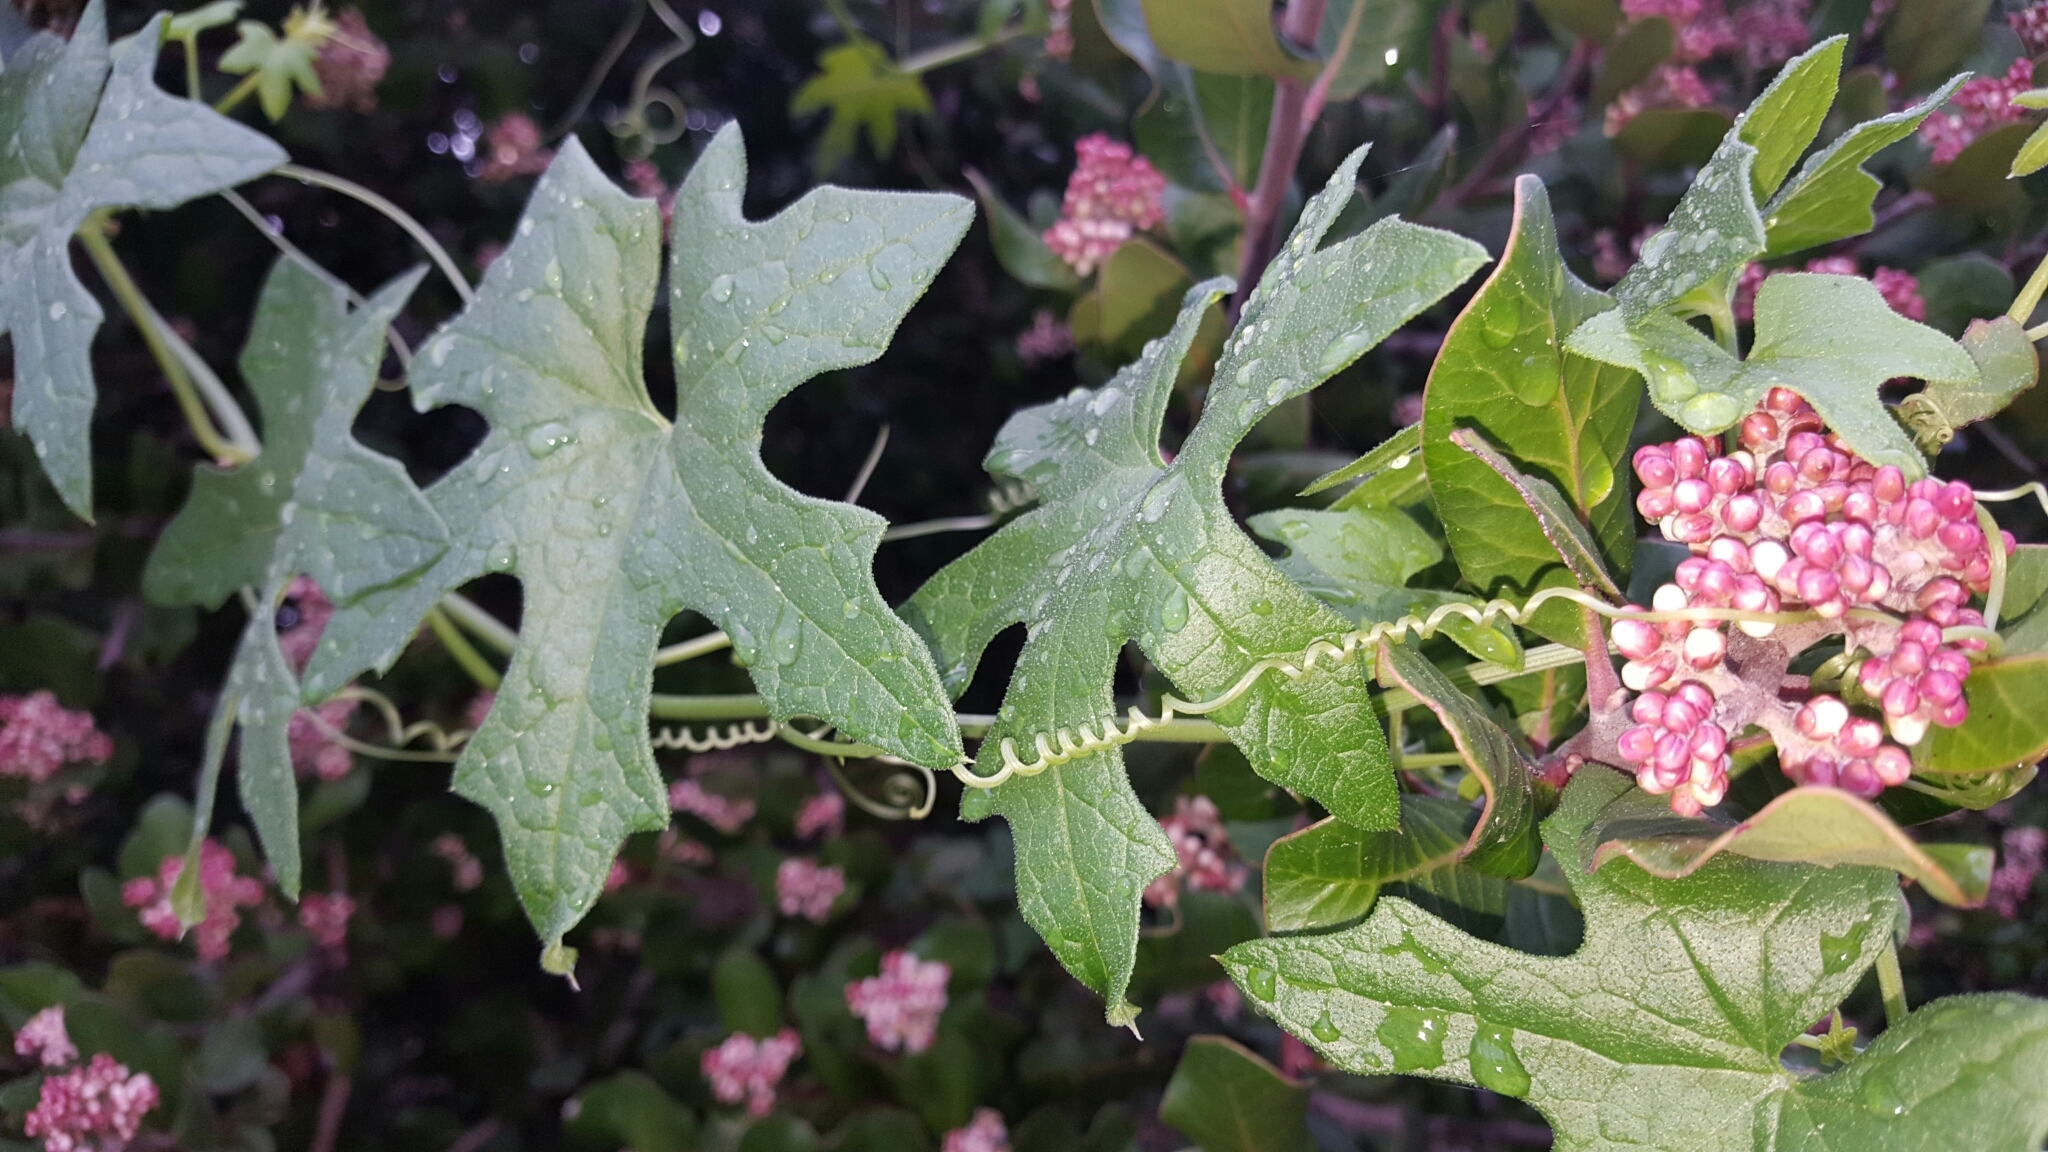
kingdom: Plantae
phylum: Tracheophyta
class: Magnoliopsida
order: Cucurbitales
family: Cucurbitaceae
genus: Marah
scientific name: Marah macrocarpa
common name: Cucamonga manroot
